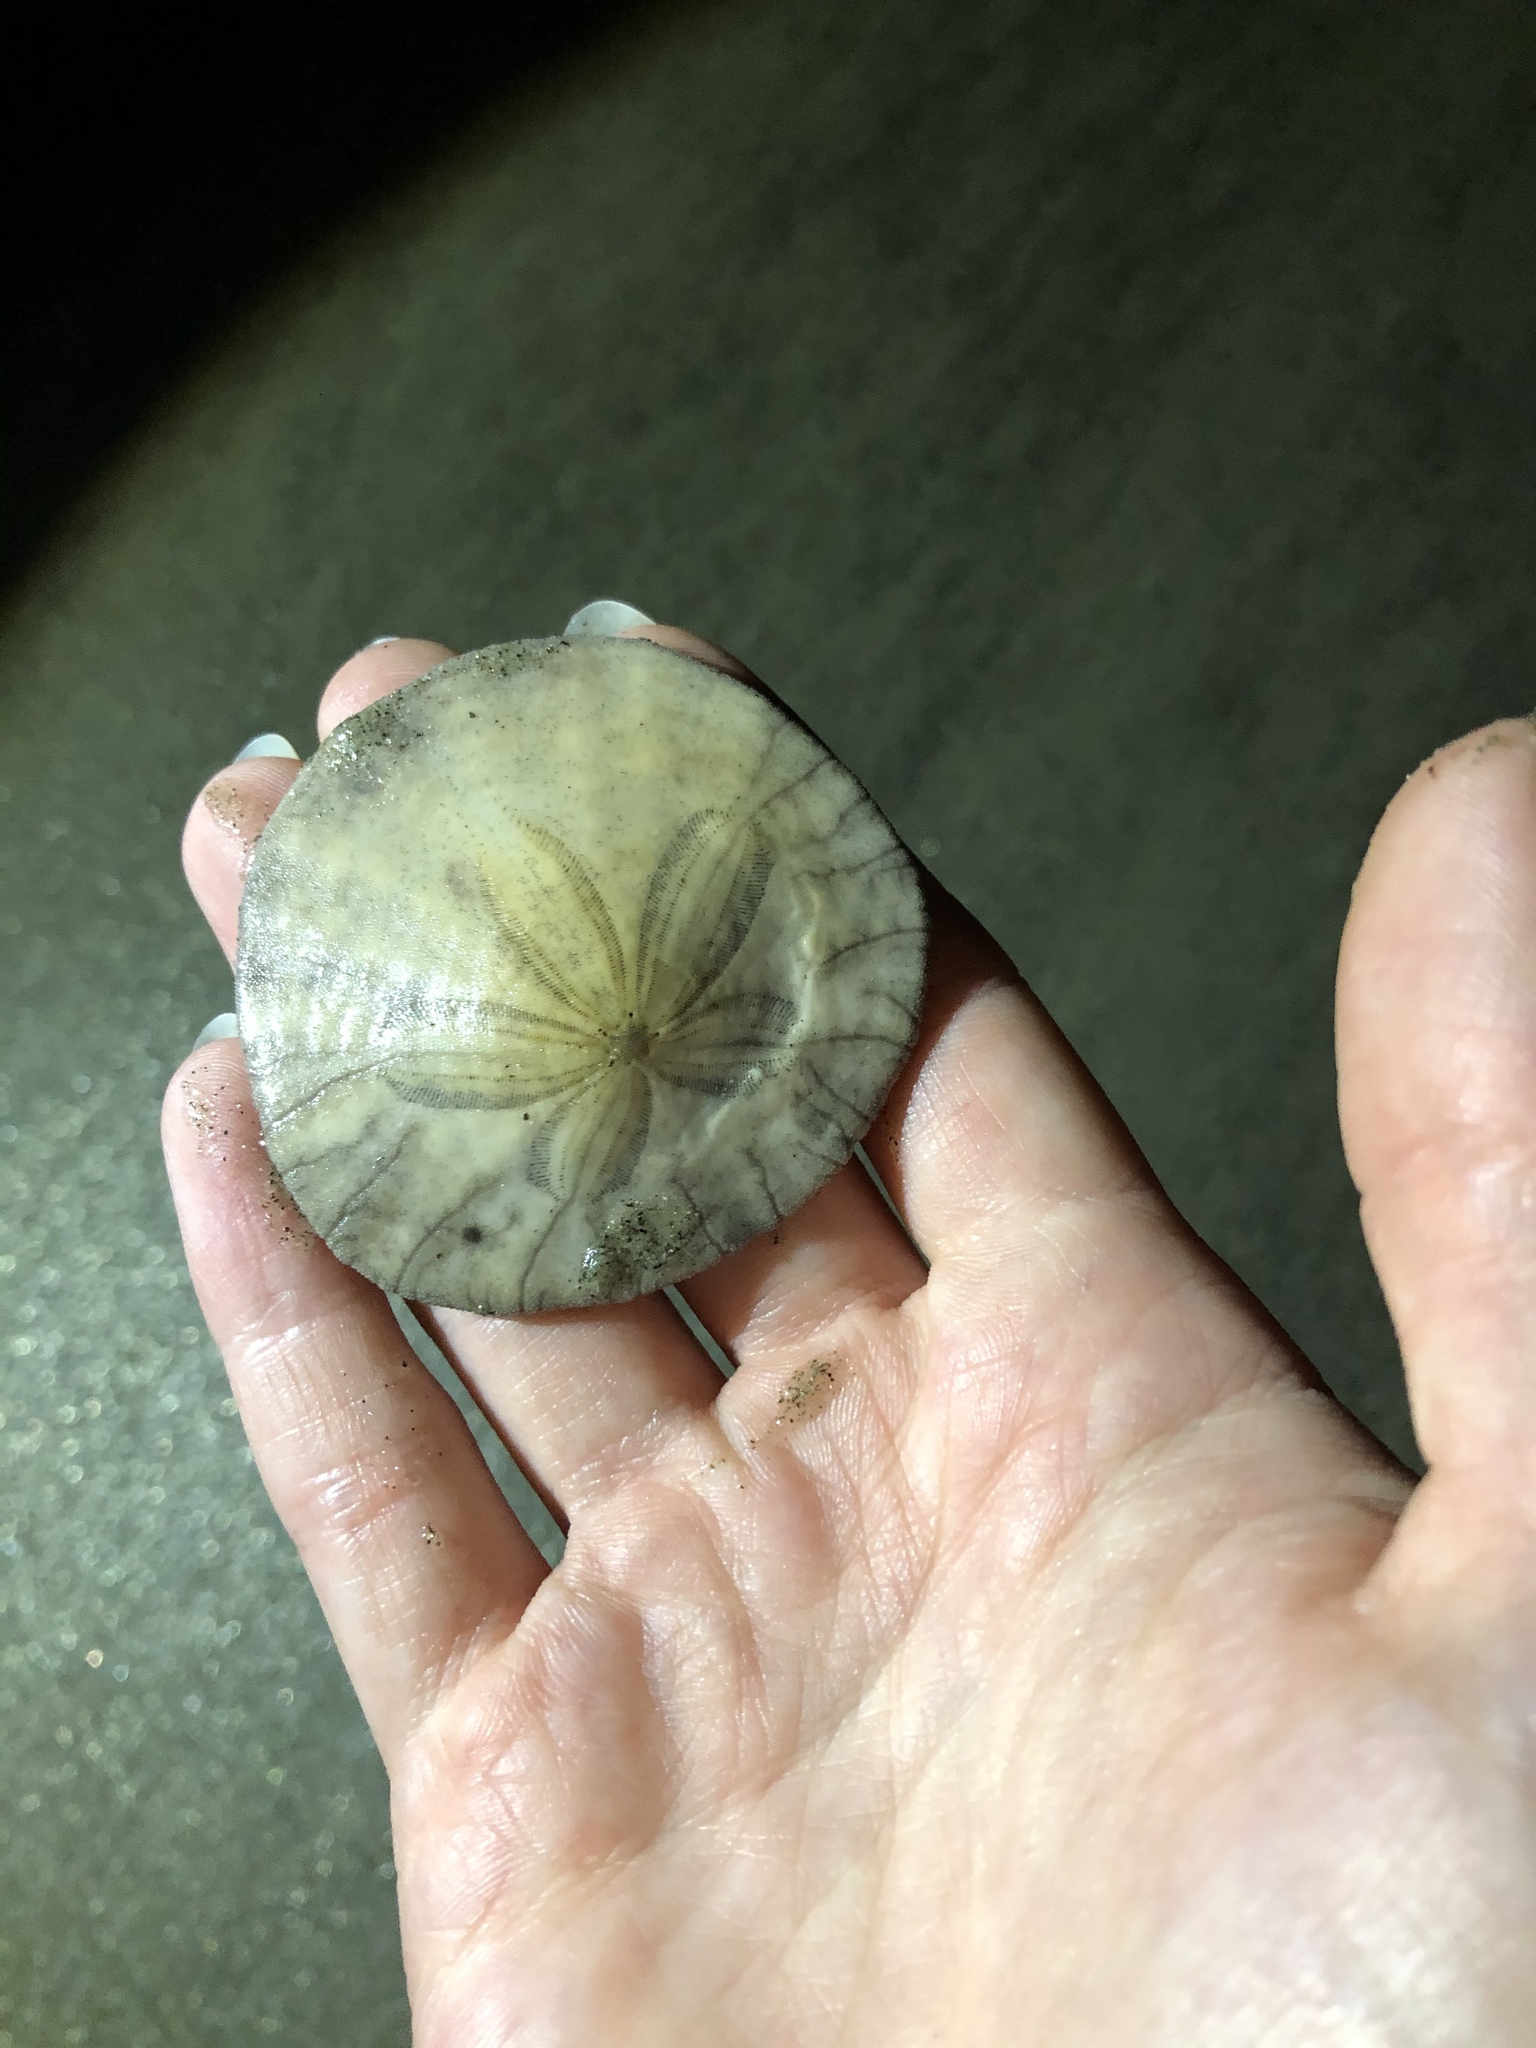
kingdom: Animalia
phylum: Echinodermata
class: Echinoidea
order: Echinolampadacea
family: Dendrasteridae
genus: Dendraster
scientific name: Dendraster excentricus
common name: Eccentric sand dollar sea urchin
